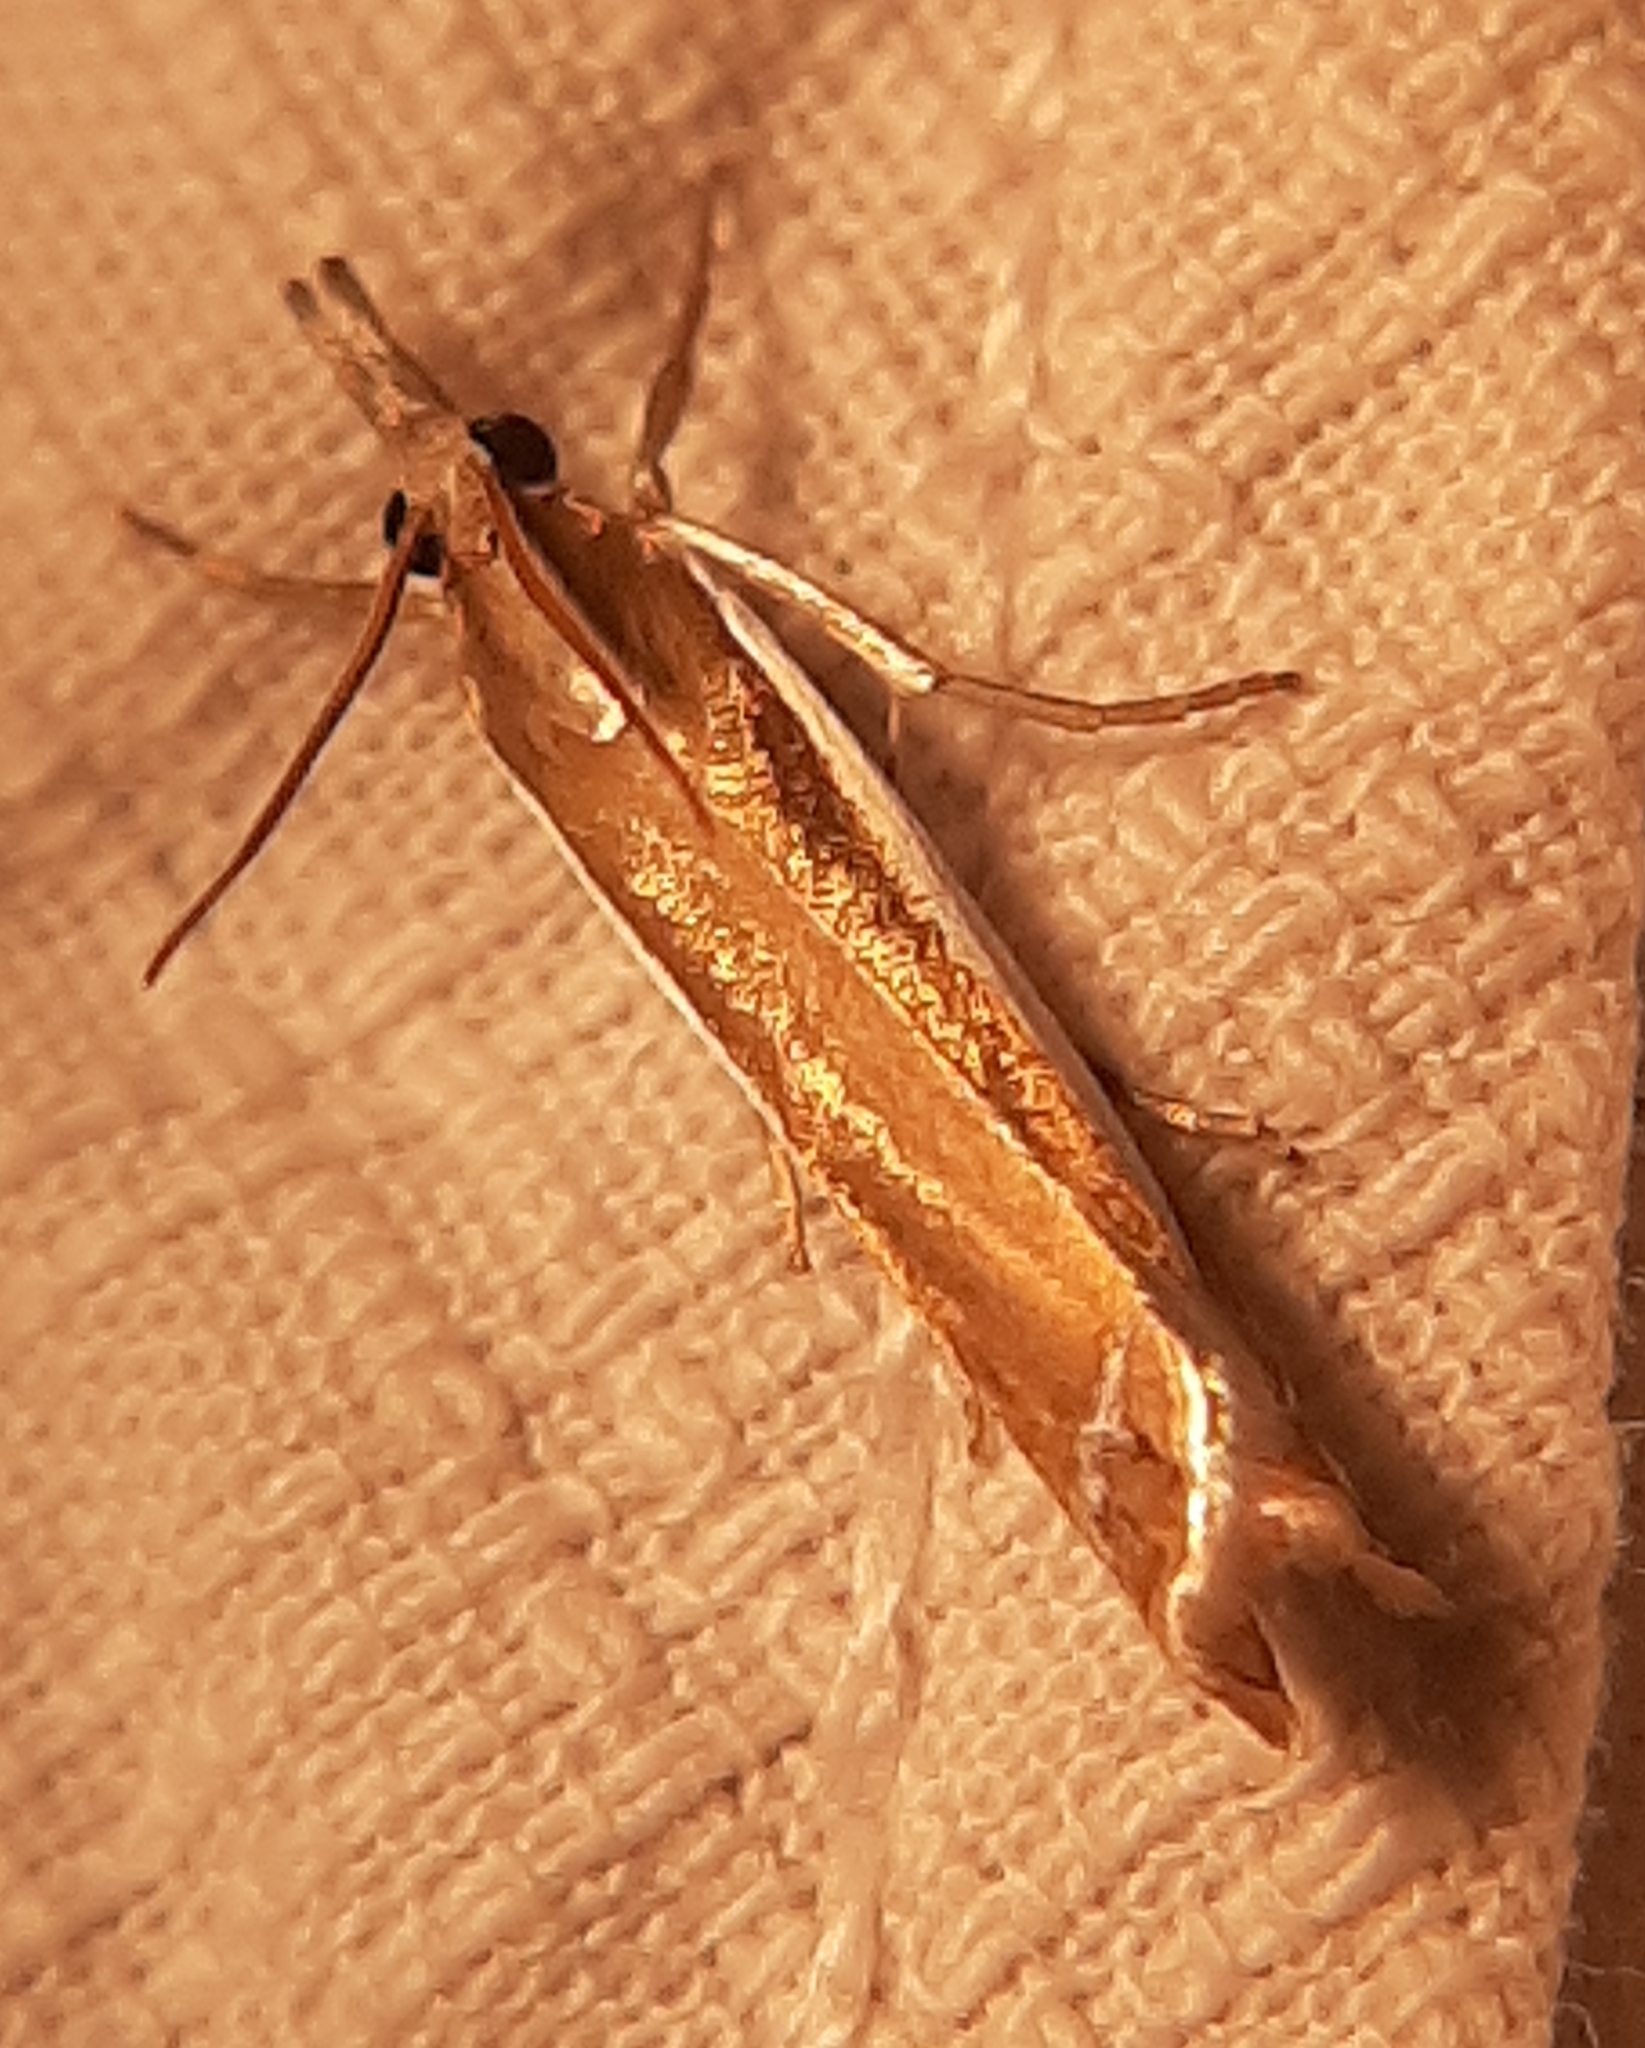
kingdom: Animalia
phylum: Arthropoda
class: Insecta
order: Lepidoptera
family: Crambidae
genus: Crambus
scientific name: Crambus
